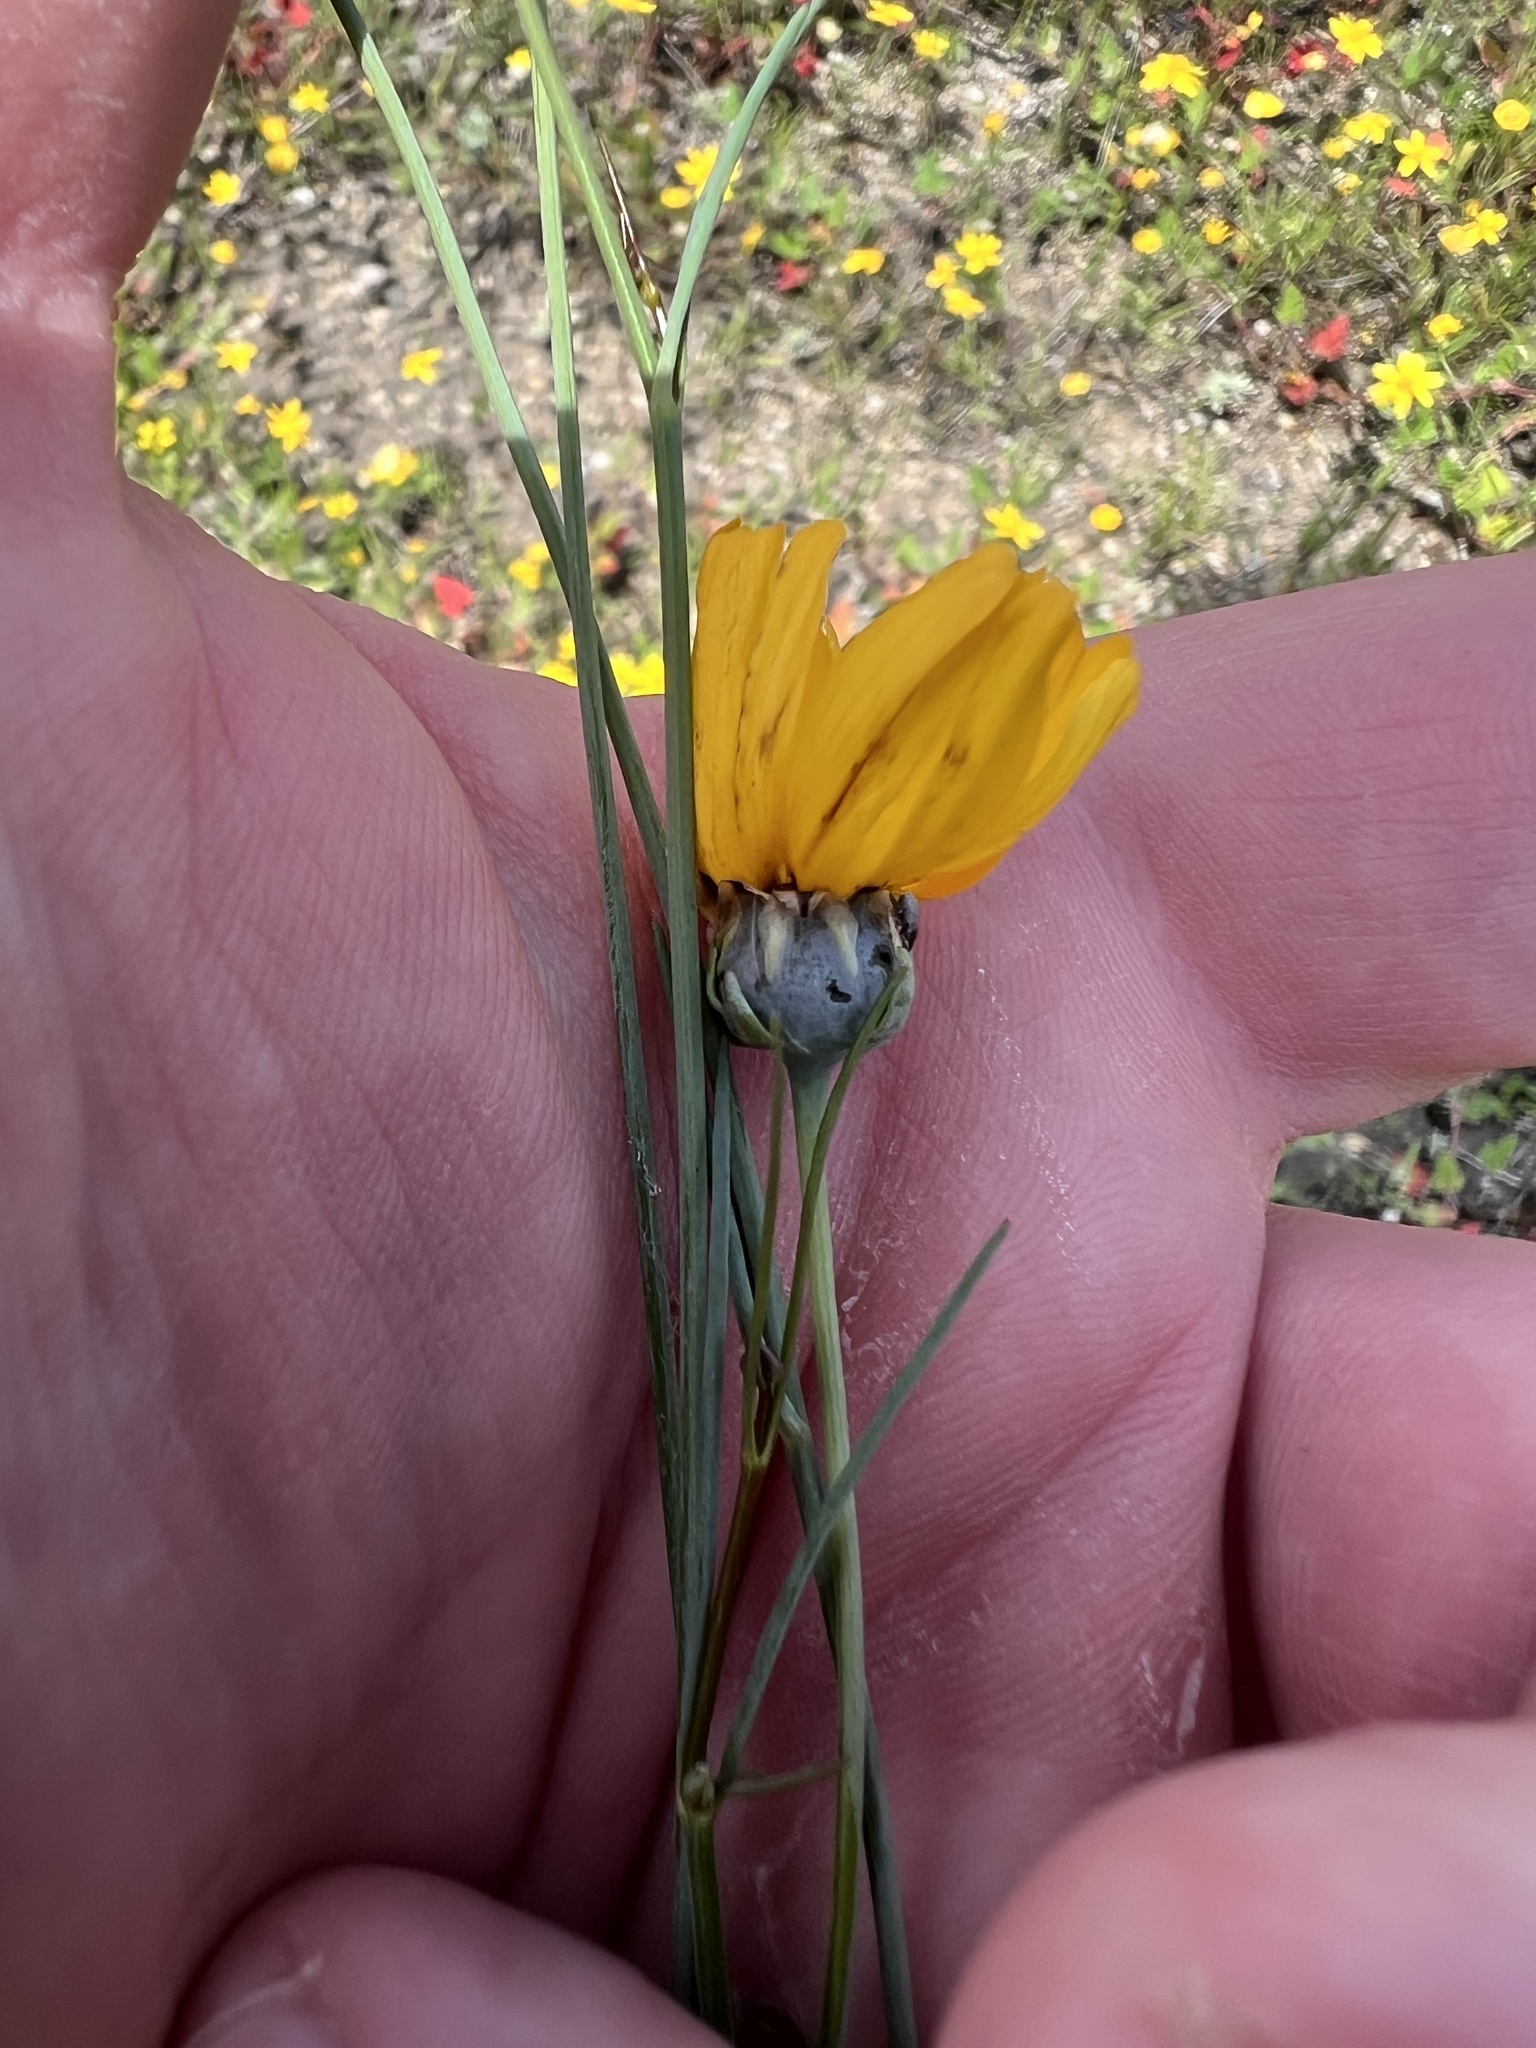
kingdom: Plantae
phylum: Tracheophyta
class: Magnoliopsida
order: Asterales
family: Asteraceae
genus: Thelesperma
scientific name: Thelesperma simplicifolium
